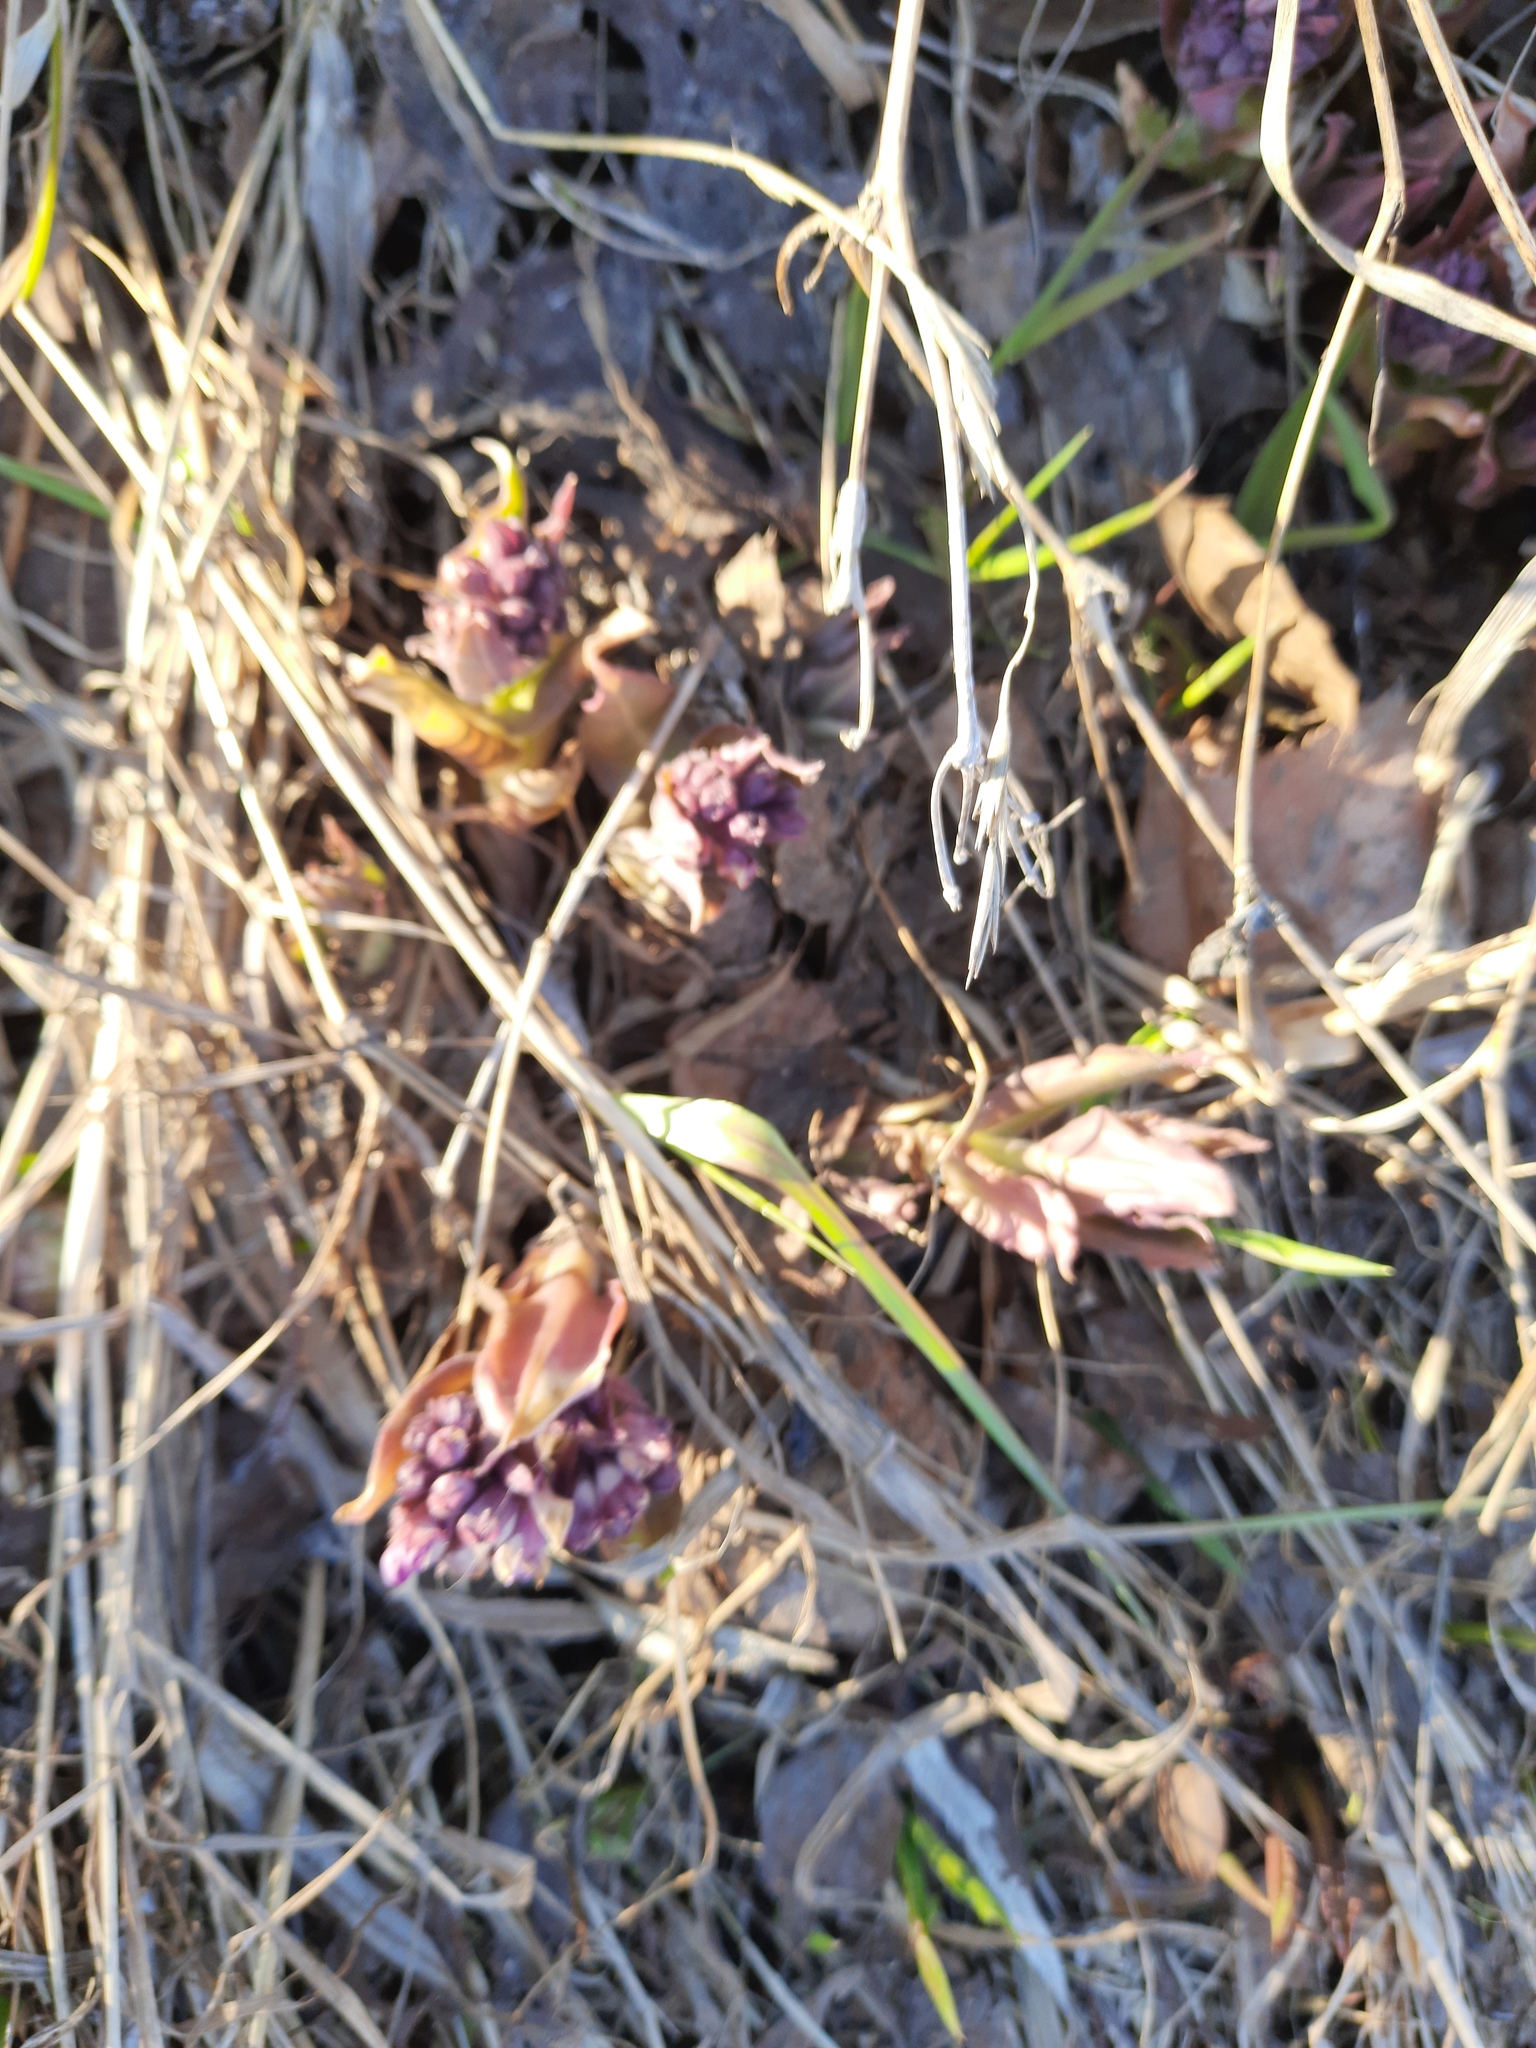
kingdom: Plantae
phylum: Tracheophyta
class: Magnoliopsida
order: Boraginales
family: Boraginaceae
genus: Pulmonaria
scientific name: Pulmonaria mollis
